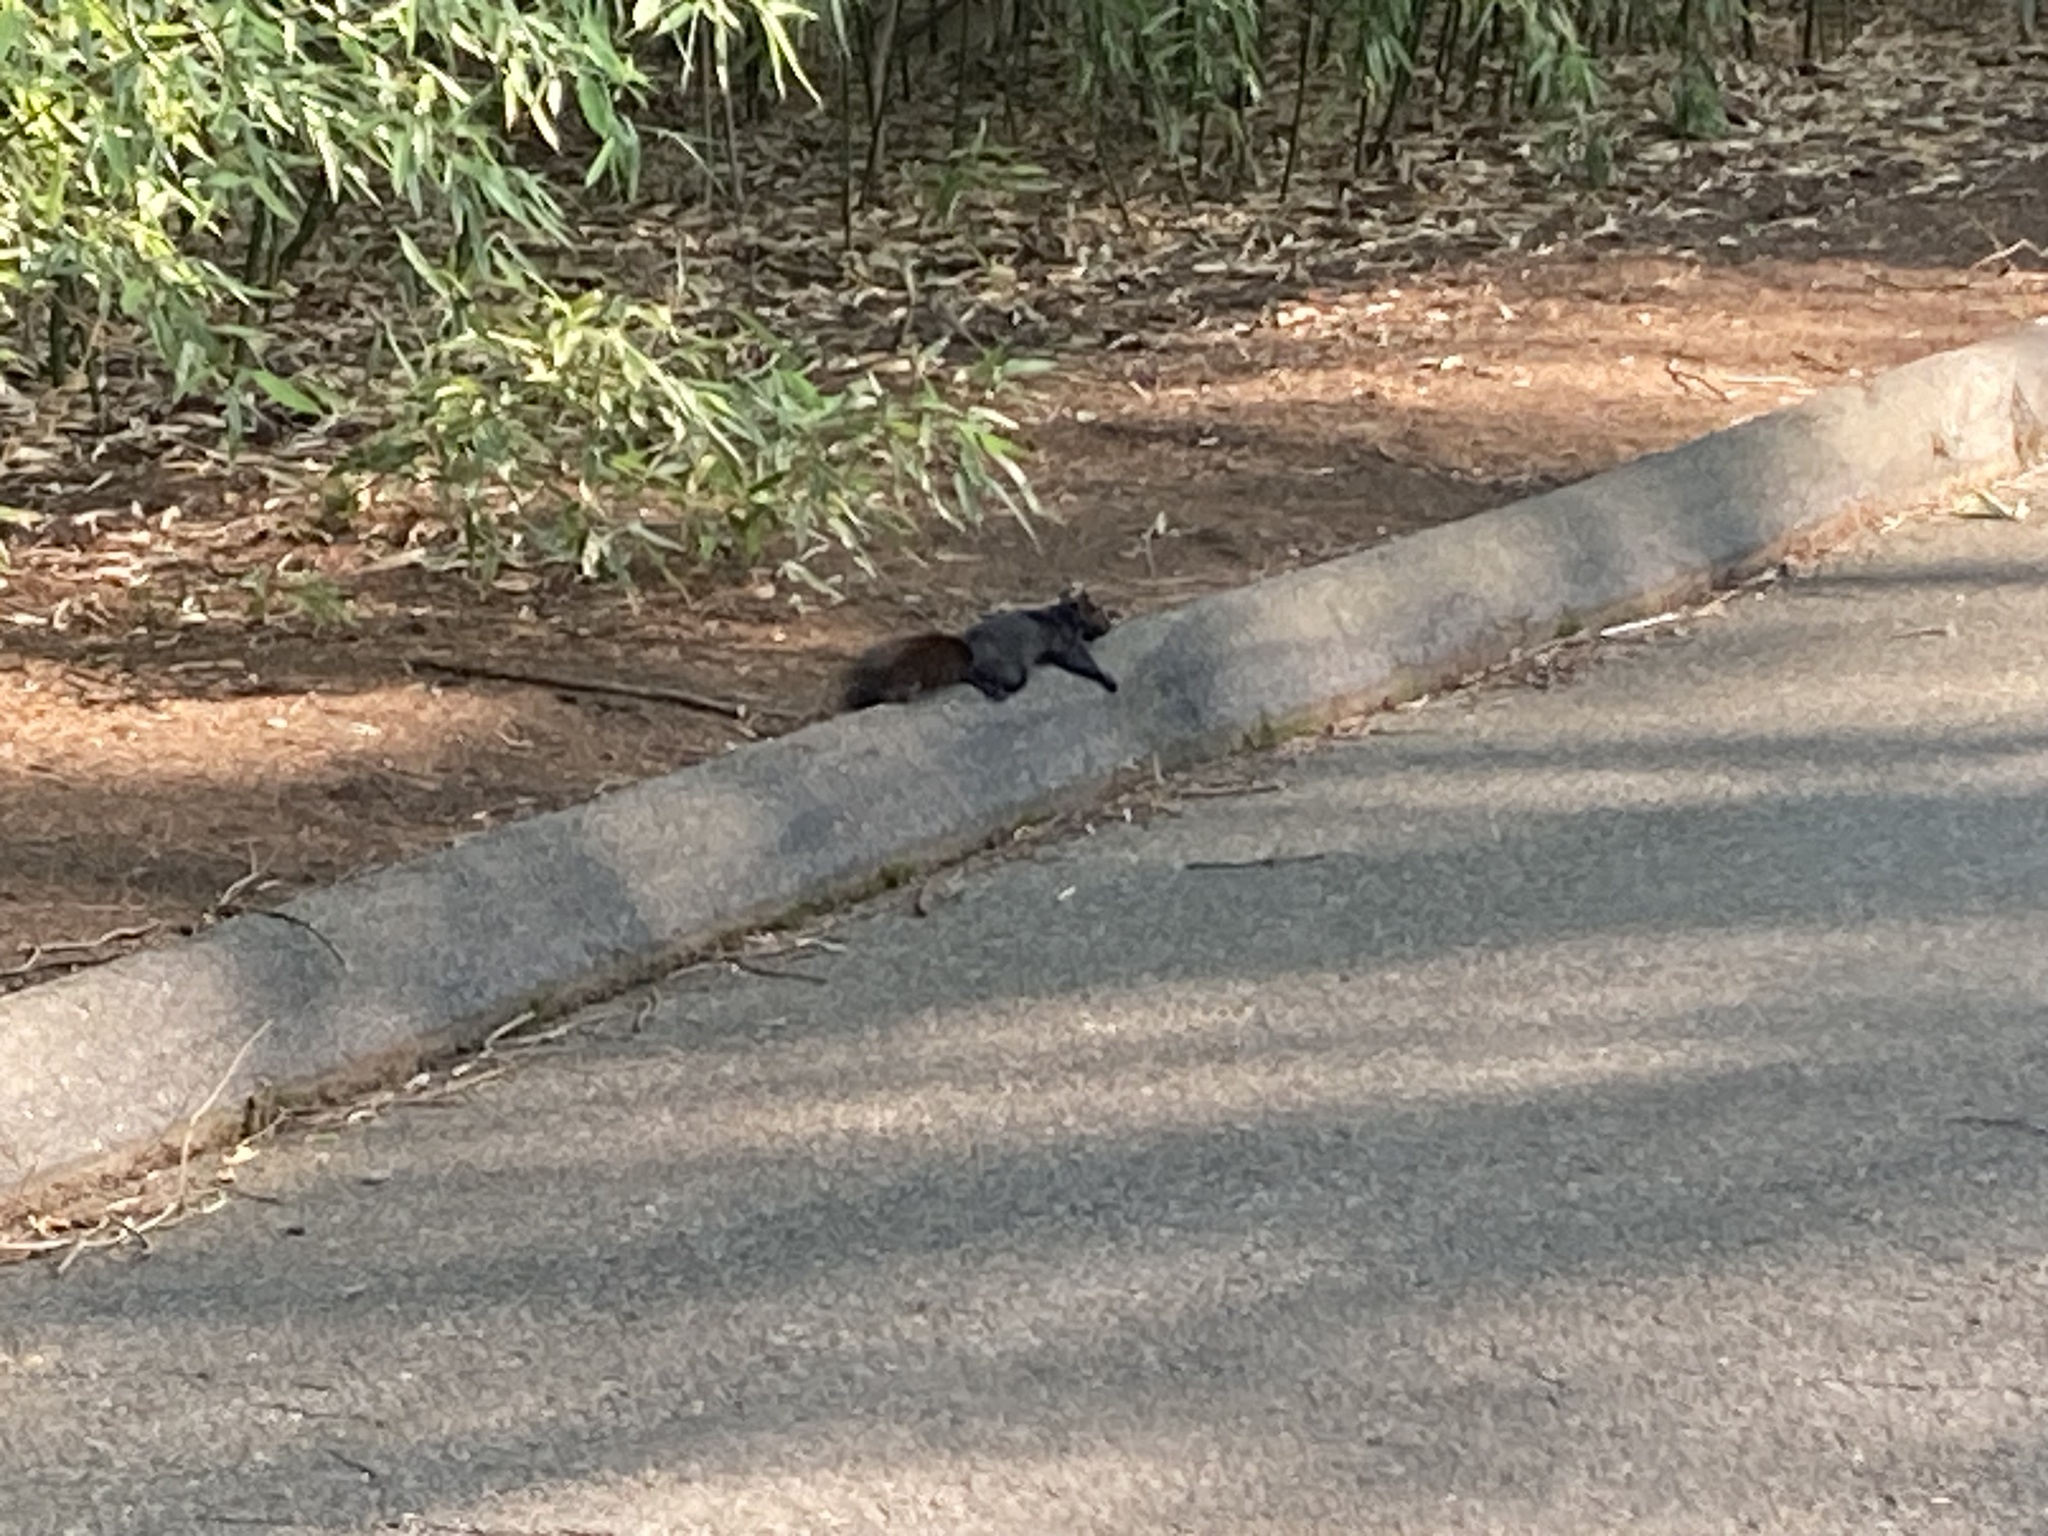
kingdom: Animalia
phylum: Chordata
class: Mammalia
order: Rodentia
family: Sciuridae
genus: Sciurus
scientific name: Sciurus carolinensis
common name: Eastern gray squirrel
